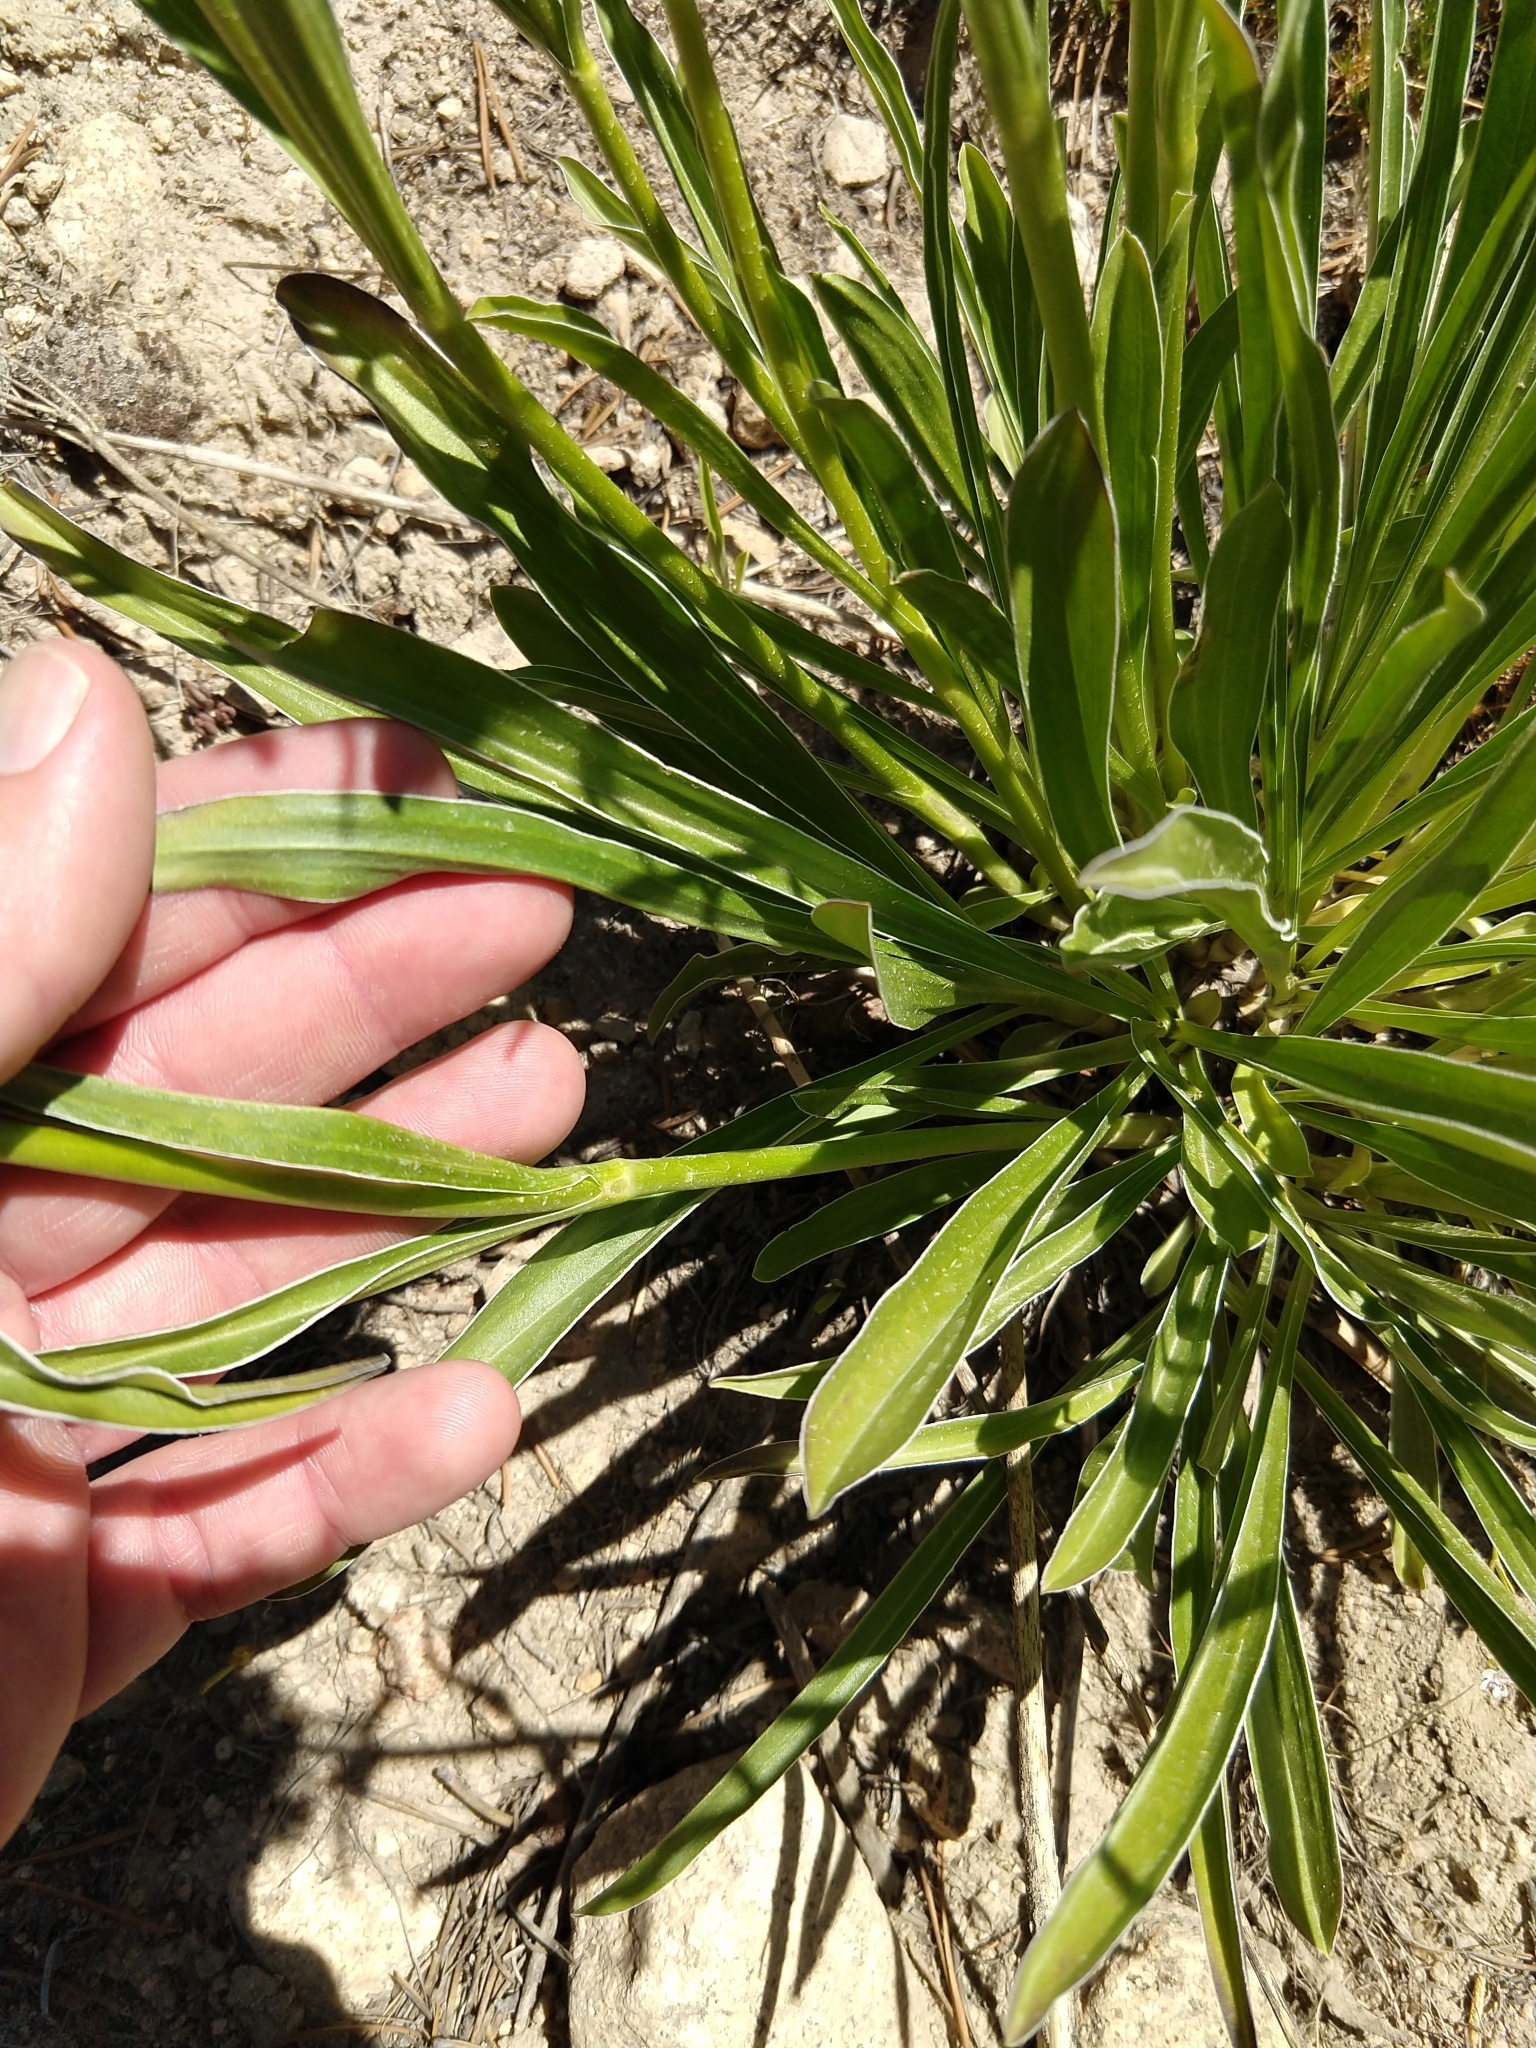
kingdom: Plantae
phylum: Tracheophyta
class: Magnoliopsida
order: Gentianales
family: Gentianaceae
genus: Frasera
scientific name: Frasera montana
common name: White frasera
